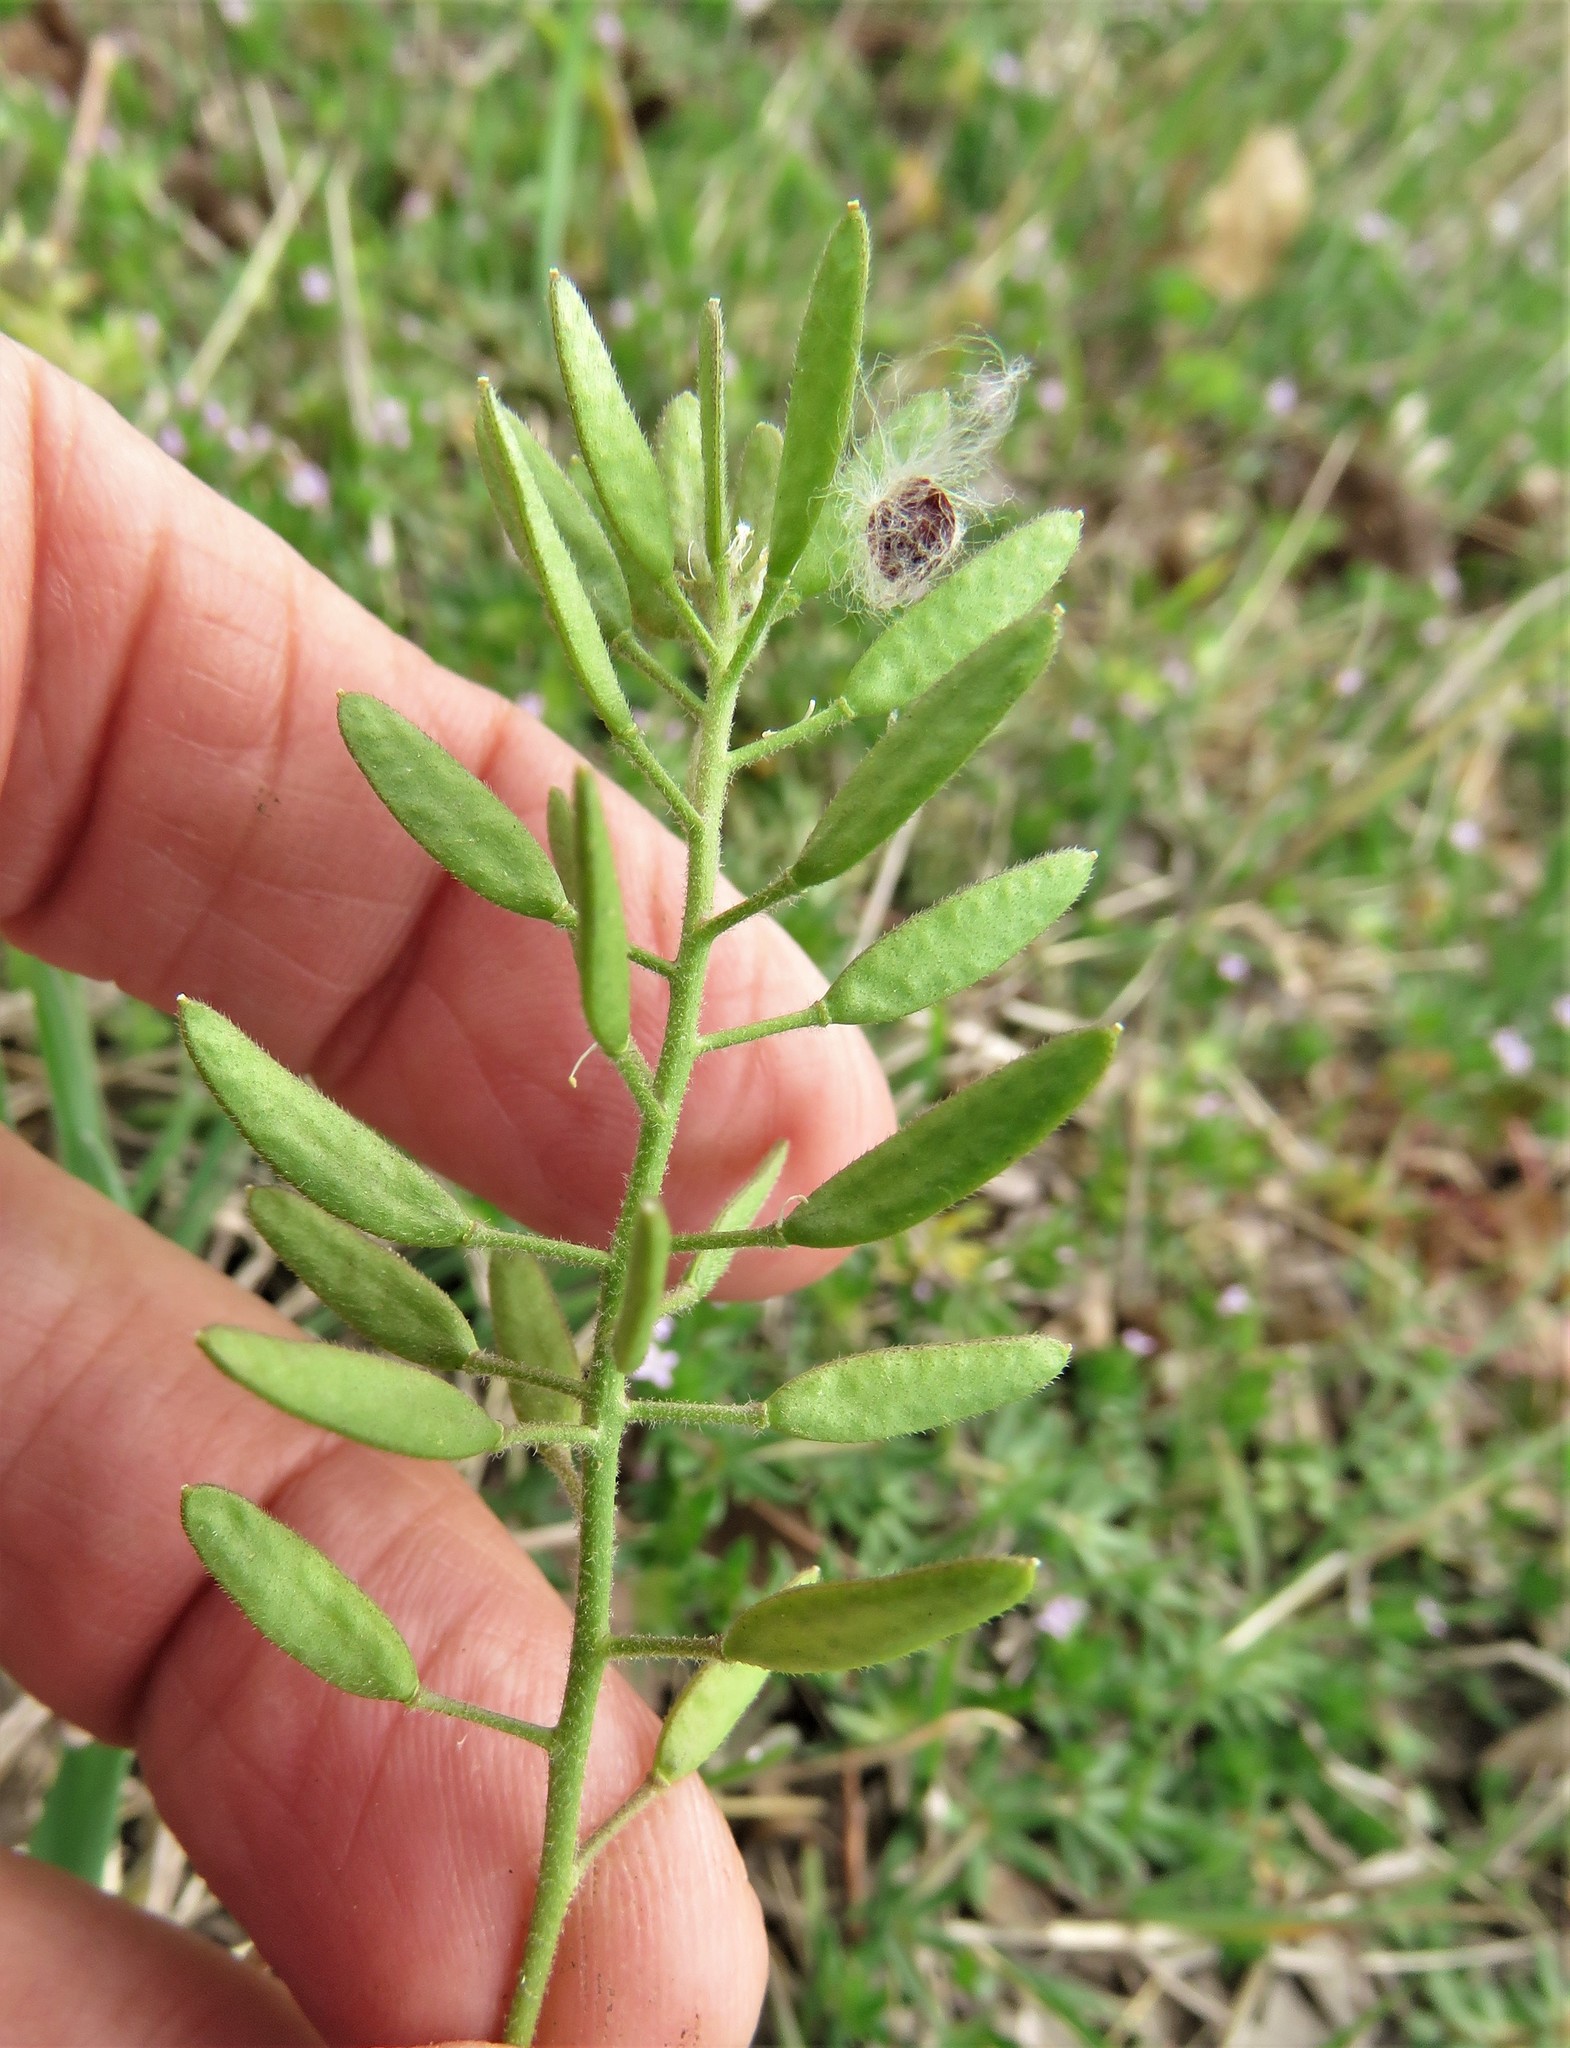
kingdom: Plantae
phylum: Tracheophyta
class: Magnoliopsida
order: Brassicales
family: Brassicaceae
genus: Tomostima
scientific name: Tomostima cuneifolia
